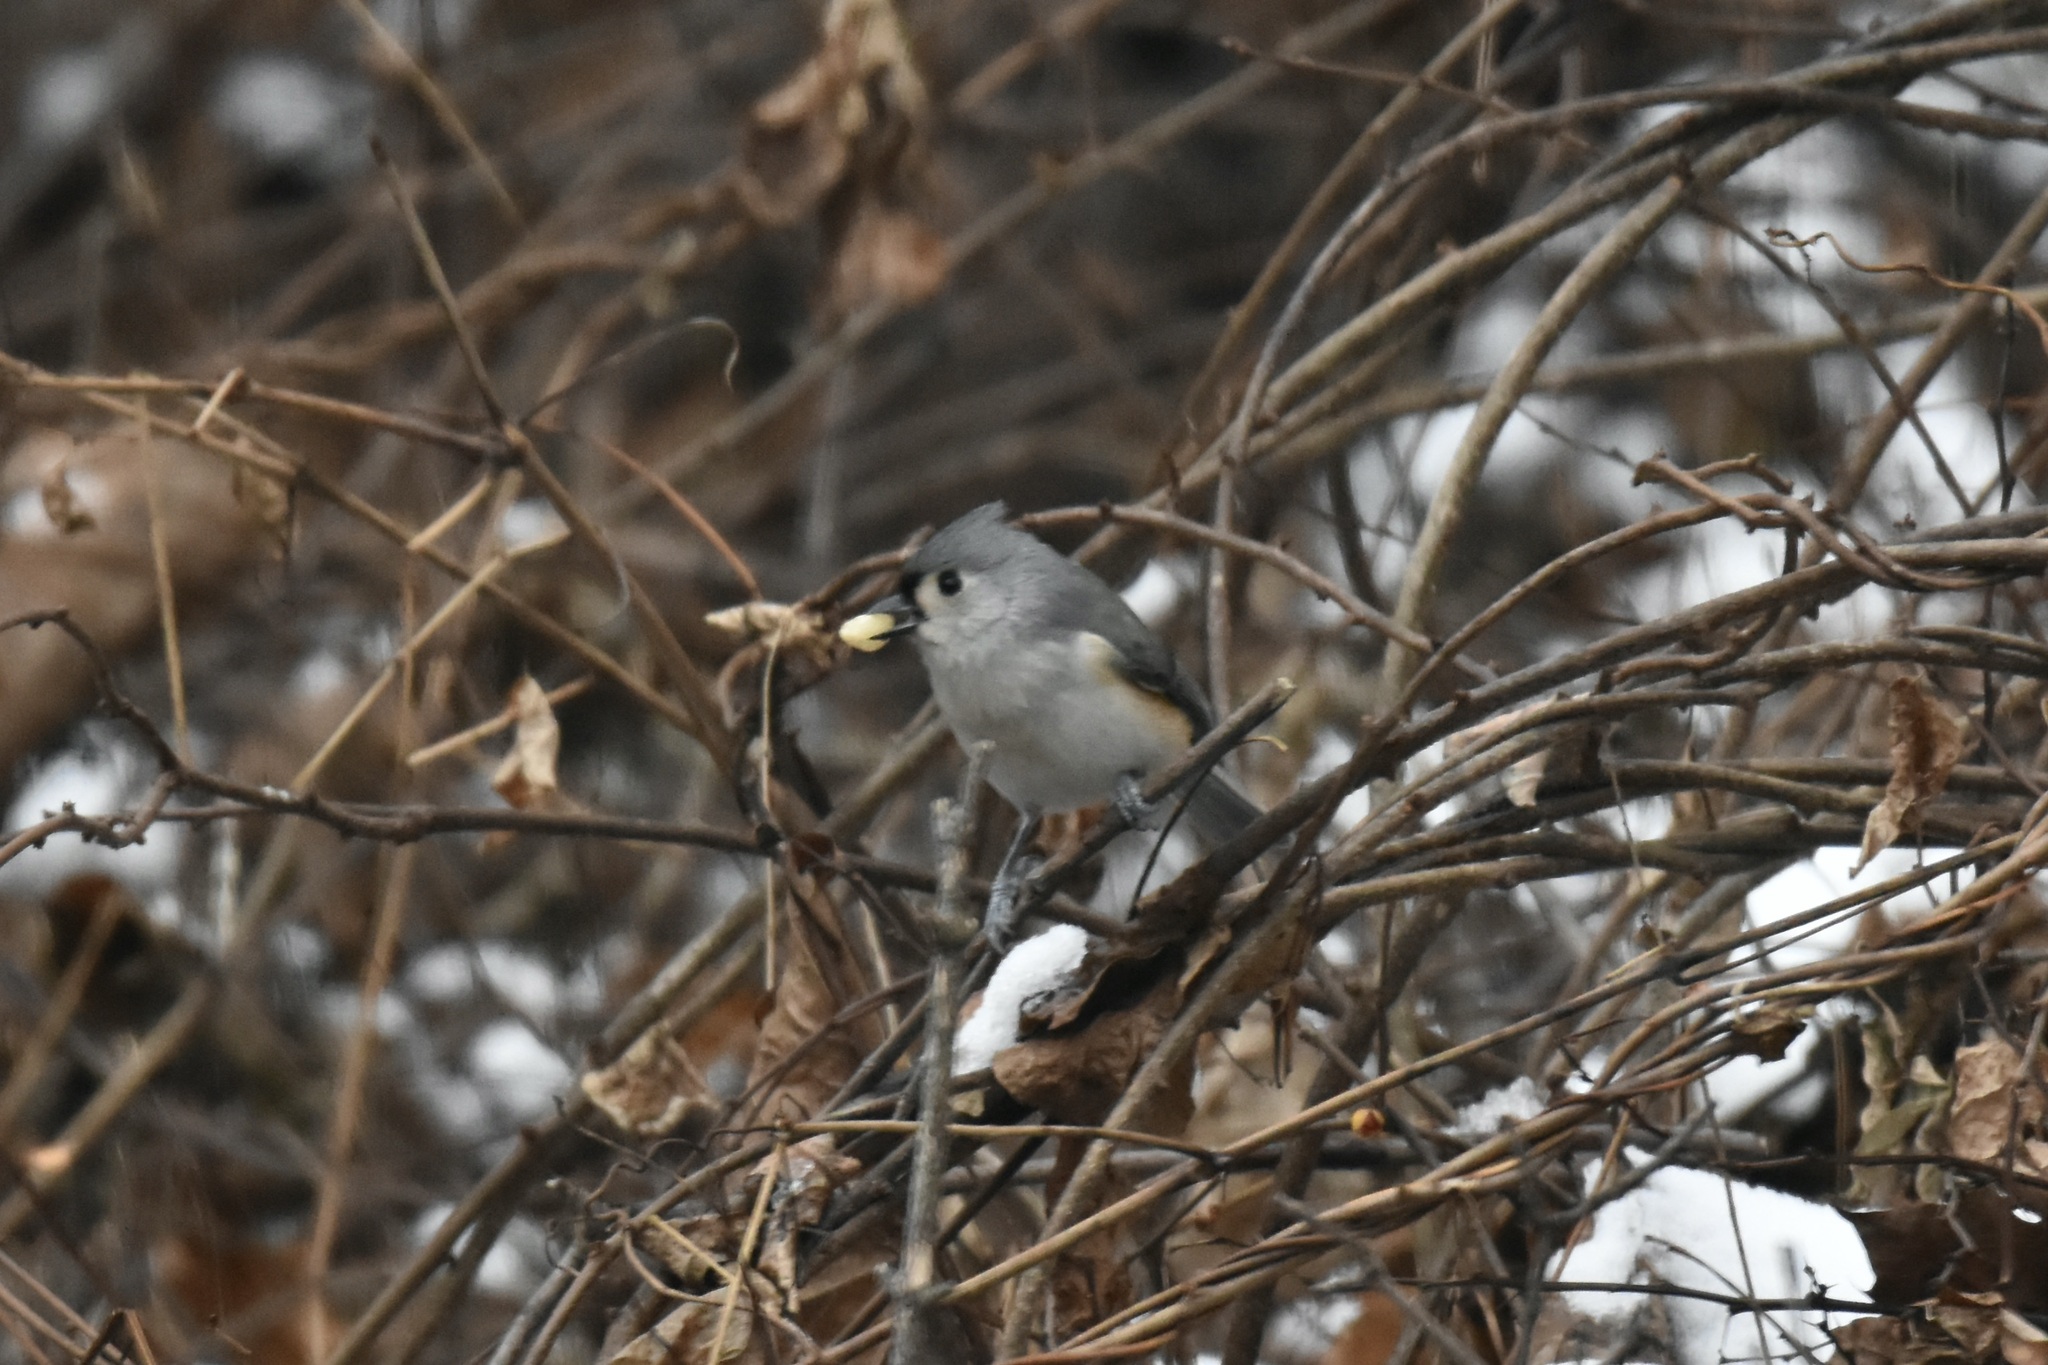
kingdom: Animalia
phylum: Chordata
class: Aves
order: Passeriformes
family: Paridae
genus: Baeolophus
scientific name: Baeolophus bicolor
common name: Tufted titmouse
